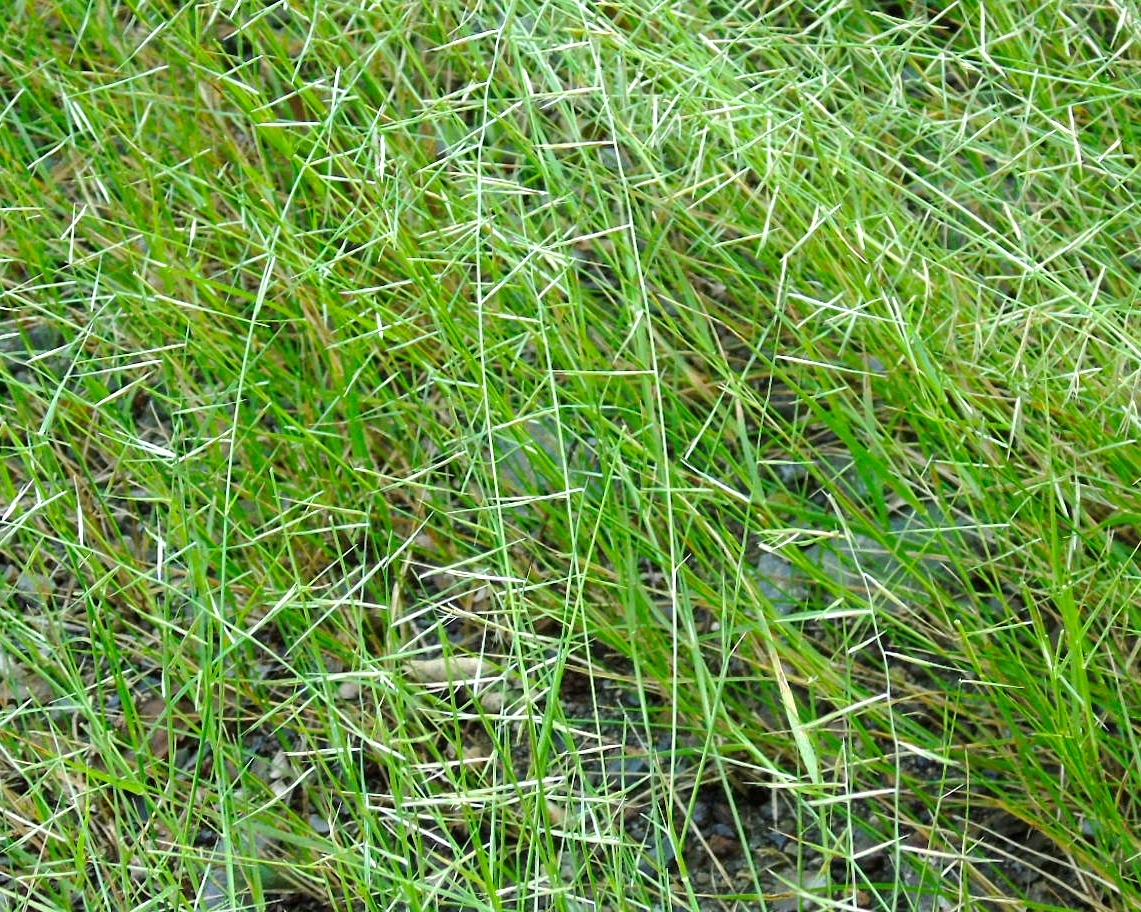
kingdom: Plantae
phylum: Tracheophyta
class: Liliopsida
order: Poales
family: Poaceae
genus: Aristida
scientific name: Aristida
